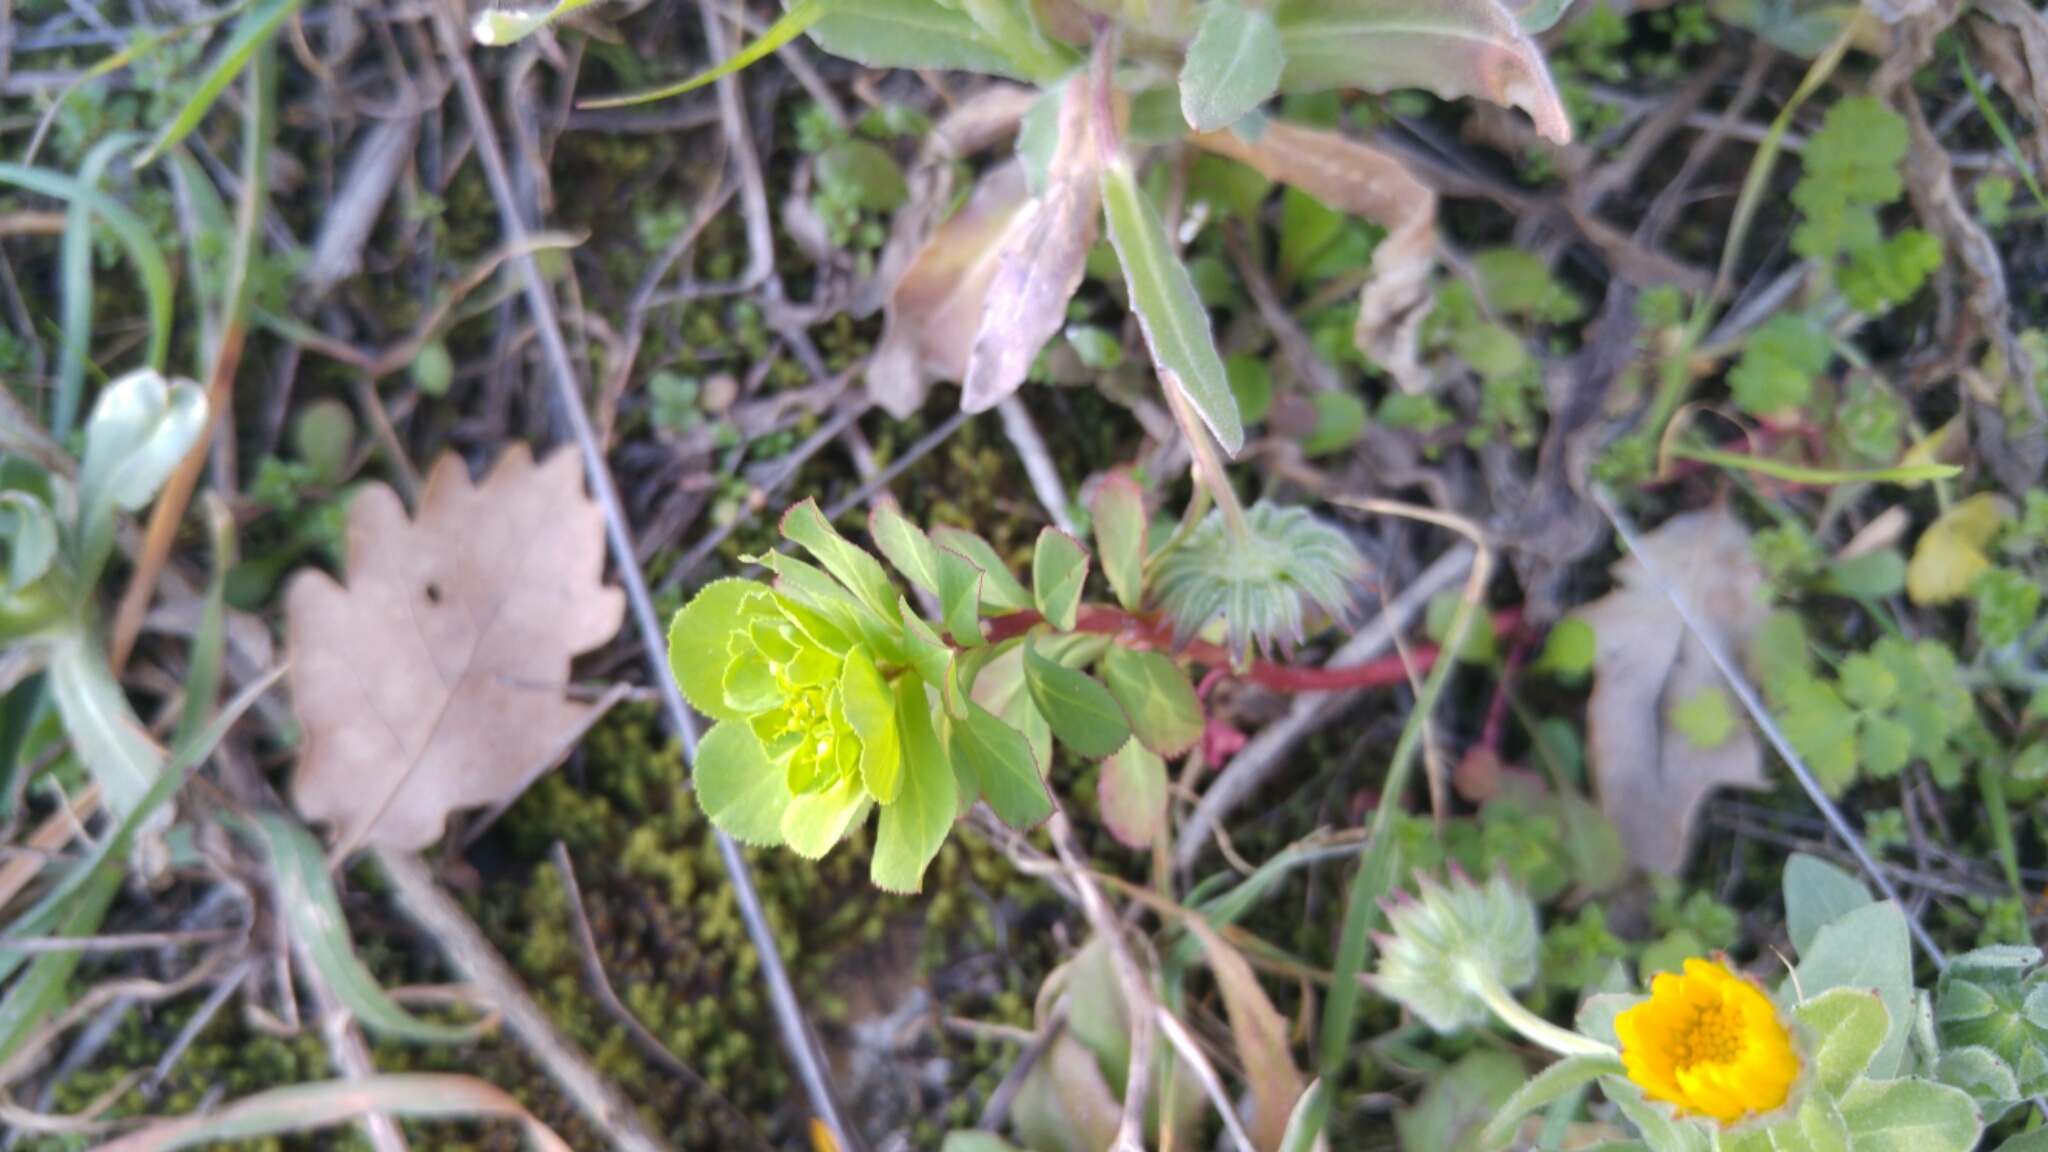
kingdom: Plantae
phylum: Tracheophyta
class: Magnoliopsida
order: Malpighiales
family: Euphorbiaceae
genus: Euphorbia
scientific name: Euphorbia helioscopia
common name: Sun spurge
